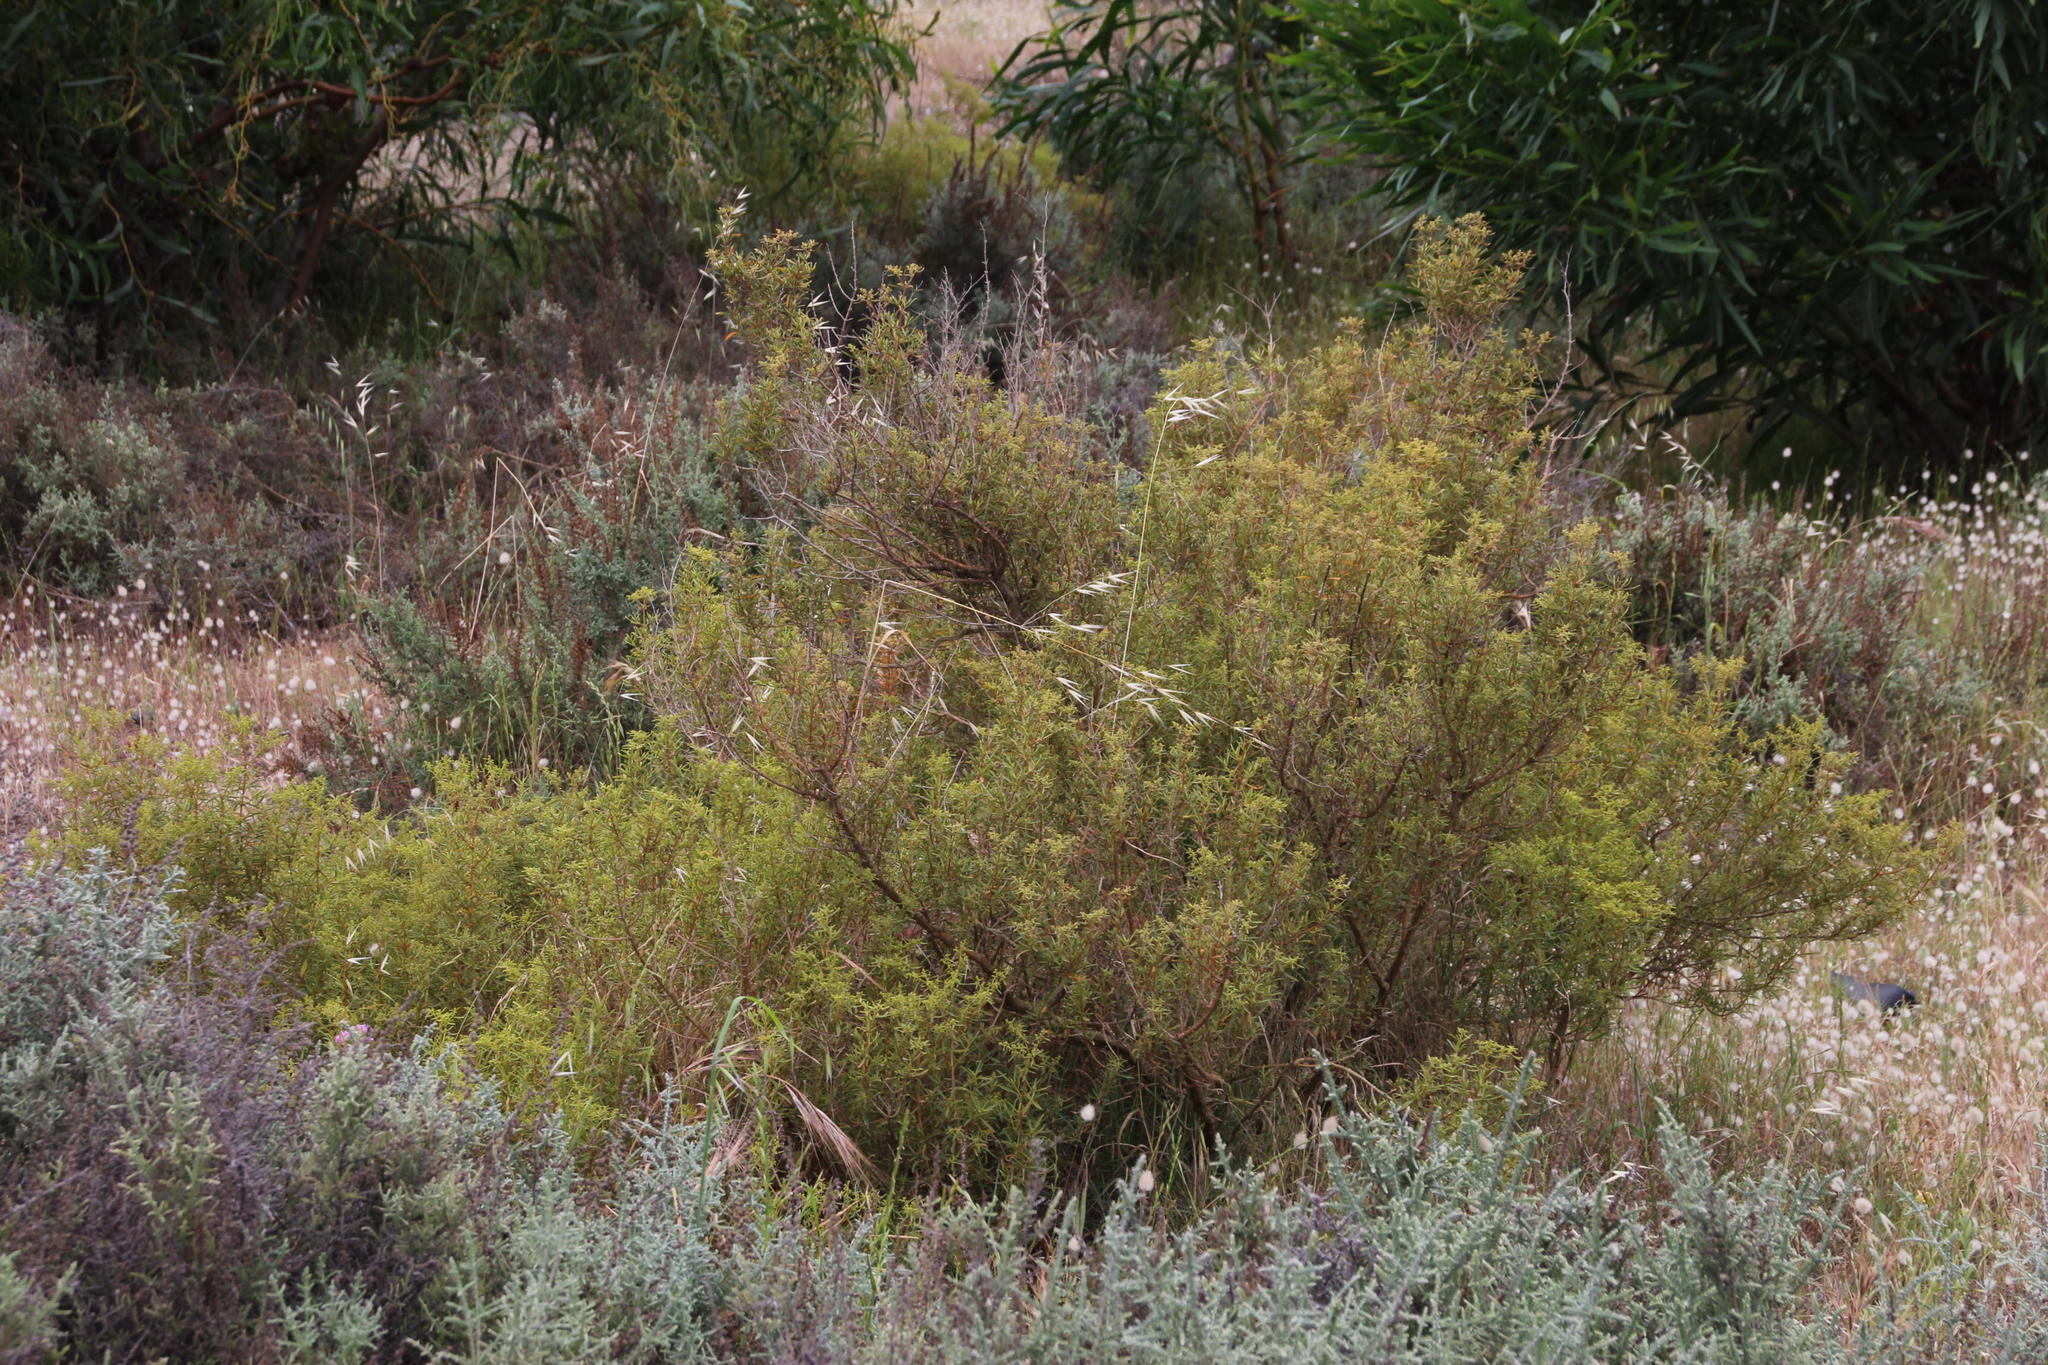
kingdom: Plantae
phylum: Tracheophyta
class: Magnoliopsida
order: Caryophyllales
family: Aizoaceae
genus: Aizoon
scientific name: Aizoon africanum
